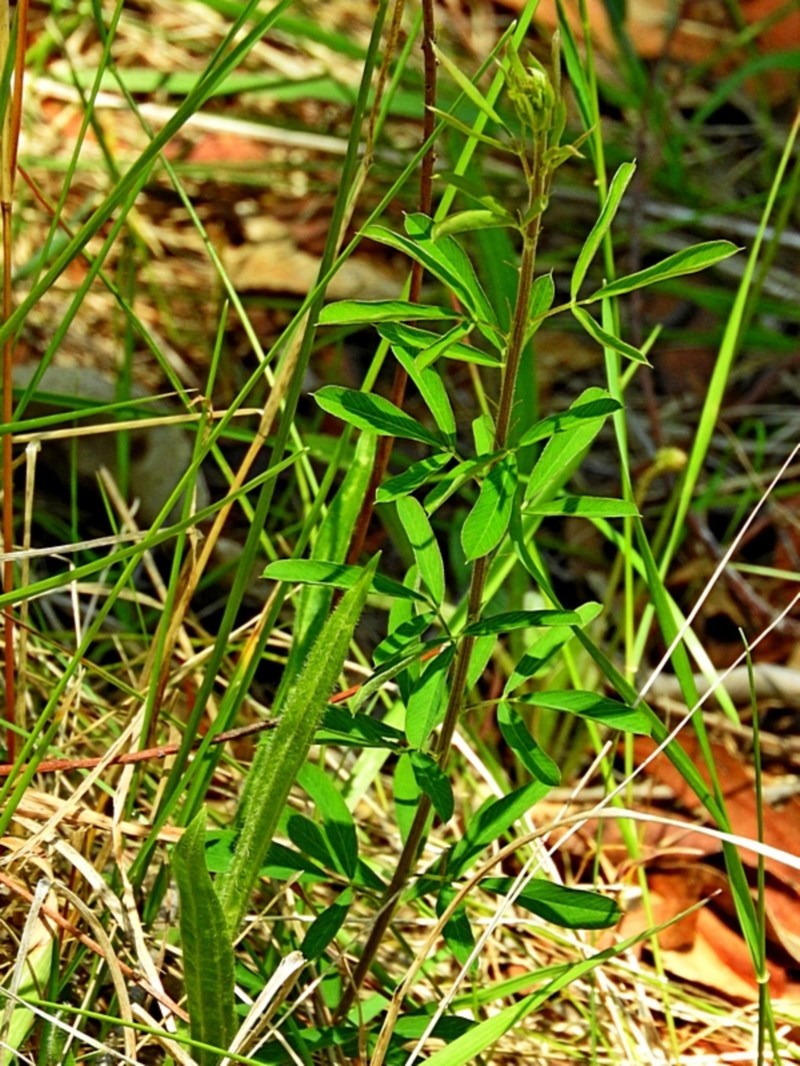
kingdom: Plantae
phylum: Tracheophyta
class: Magnoliopsida
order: Fabales
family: Fabaceae
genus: Lespedeza
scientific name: Lespedeza juncea
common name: Siberian lespedeza
